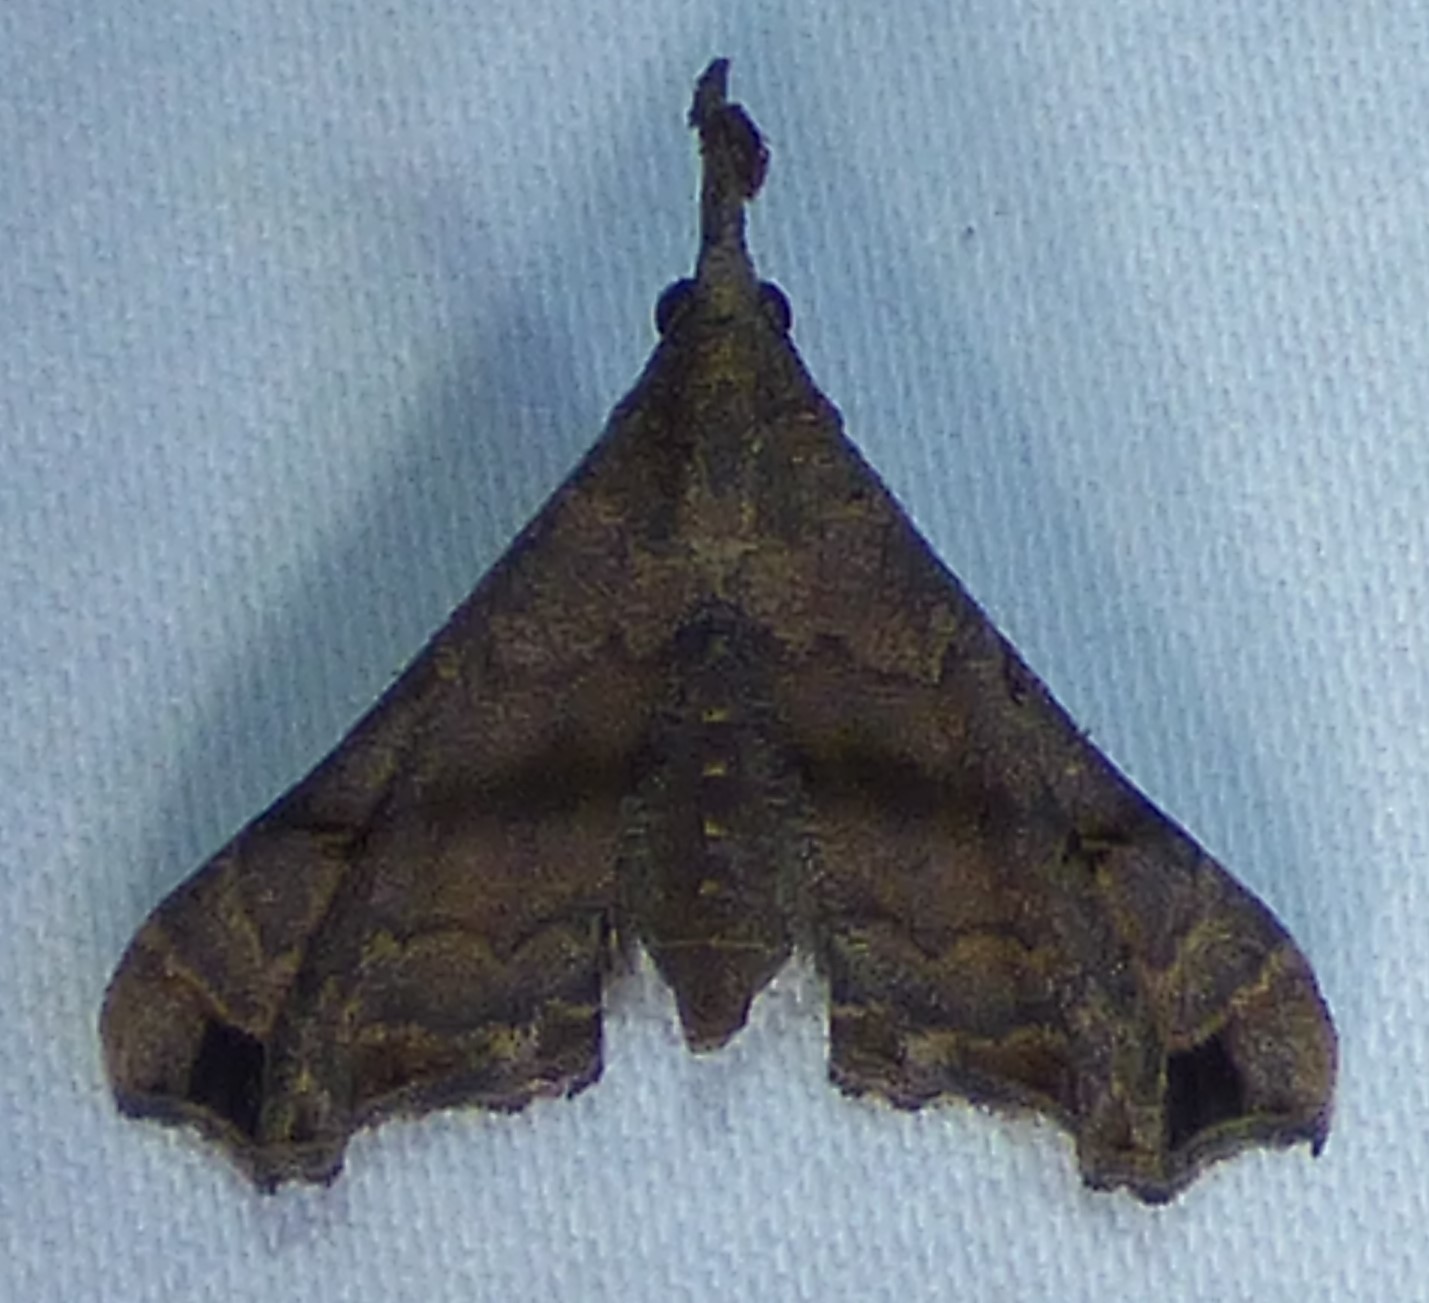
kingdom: Animalia
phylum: Arthropoda
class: Insecta
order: Lepidoptera
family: Erebidae
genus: Palthis
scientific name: Palthis asopialis
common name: Faint-spotted palthis moth
